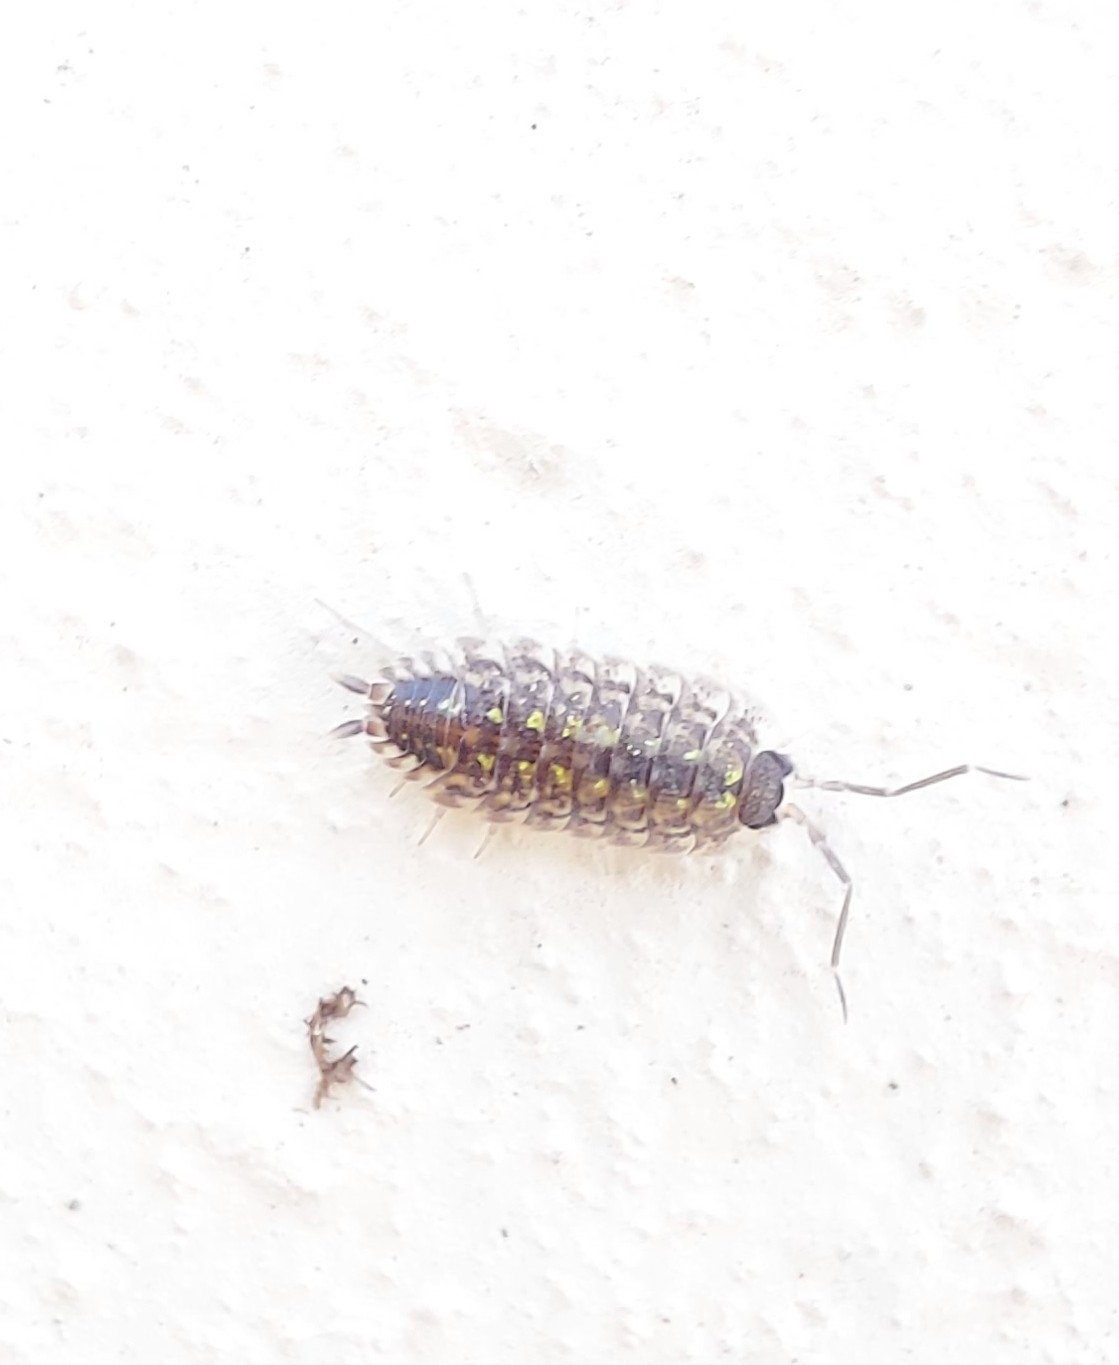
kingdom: Animalia
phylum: Arthropoda
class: Malacostraca
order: Isopoda
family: Porcellionidae
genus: Porcellio
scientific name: Porcellio spinicornis
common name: Painted woodlouse
